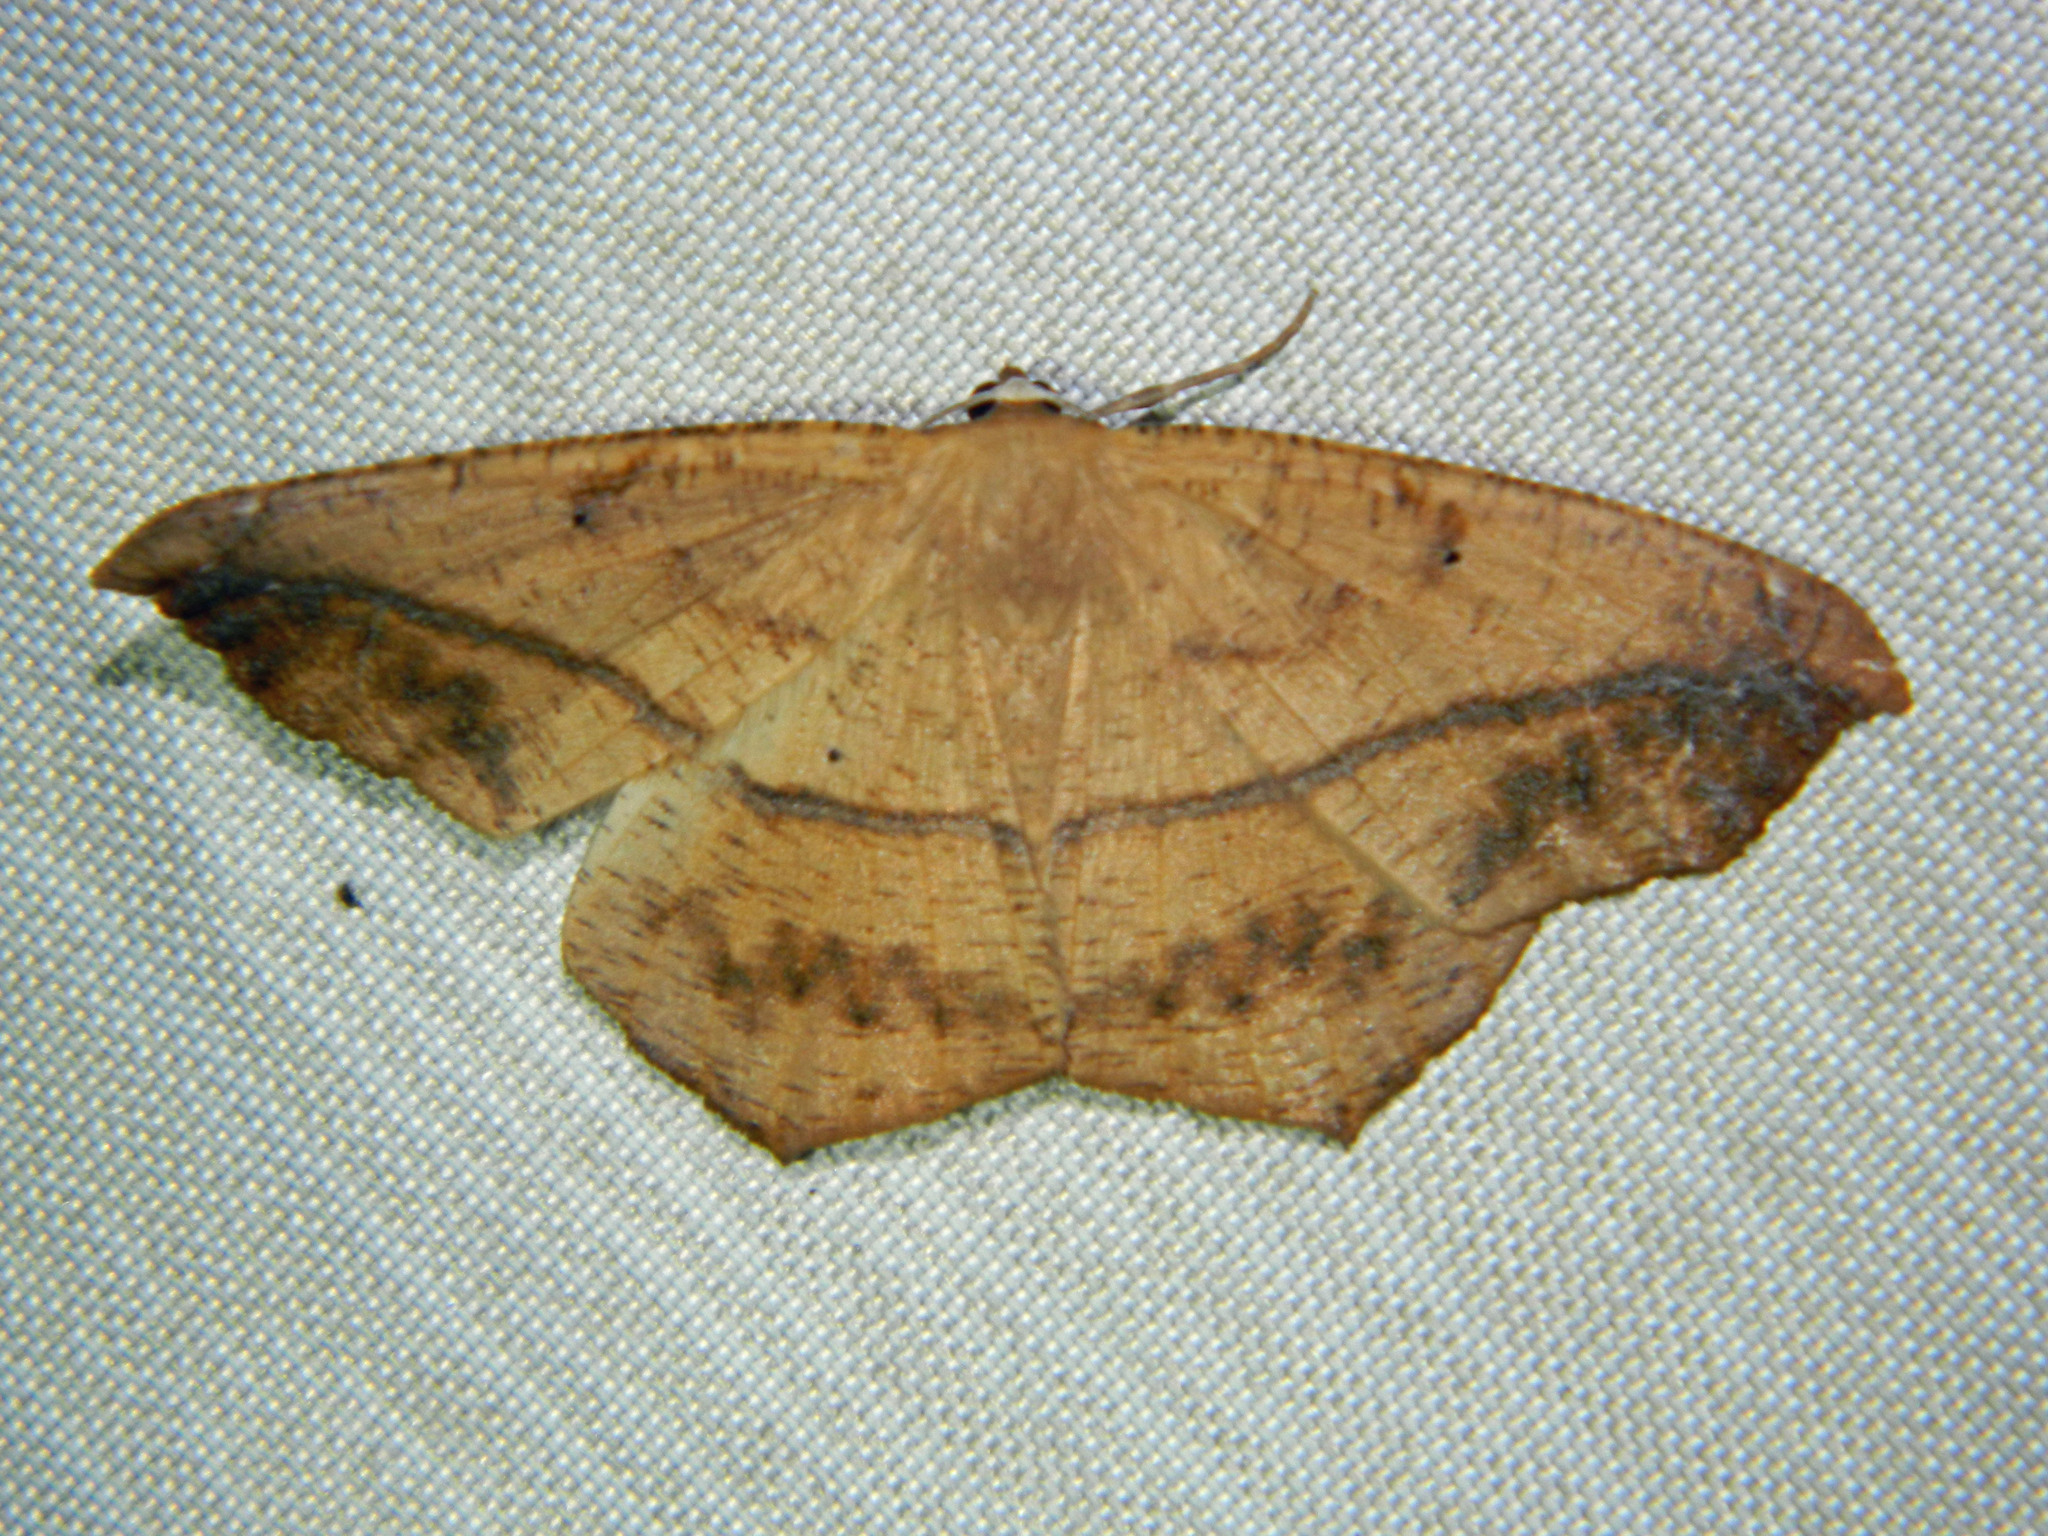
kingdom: Animalia
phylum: Arthropoda
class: Insecta
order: Lepidoptera
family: Geometridae
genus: Prochoerodes
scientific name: Prochoerodes lineola
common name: Large maple spanworm
